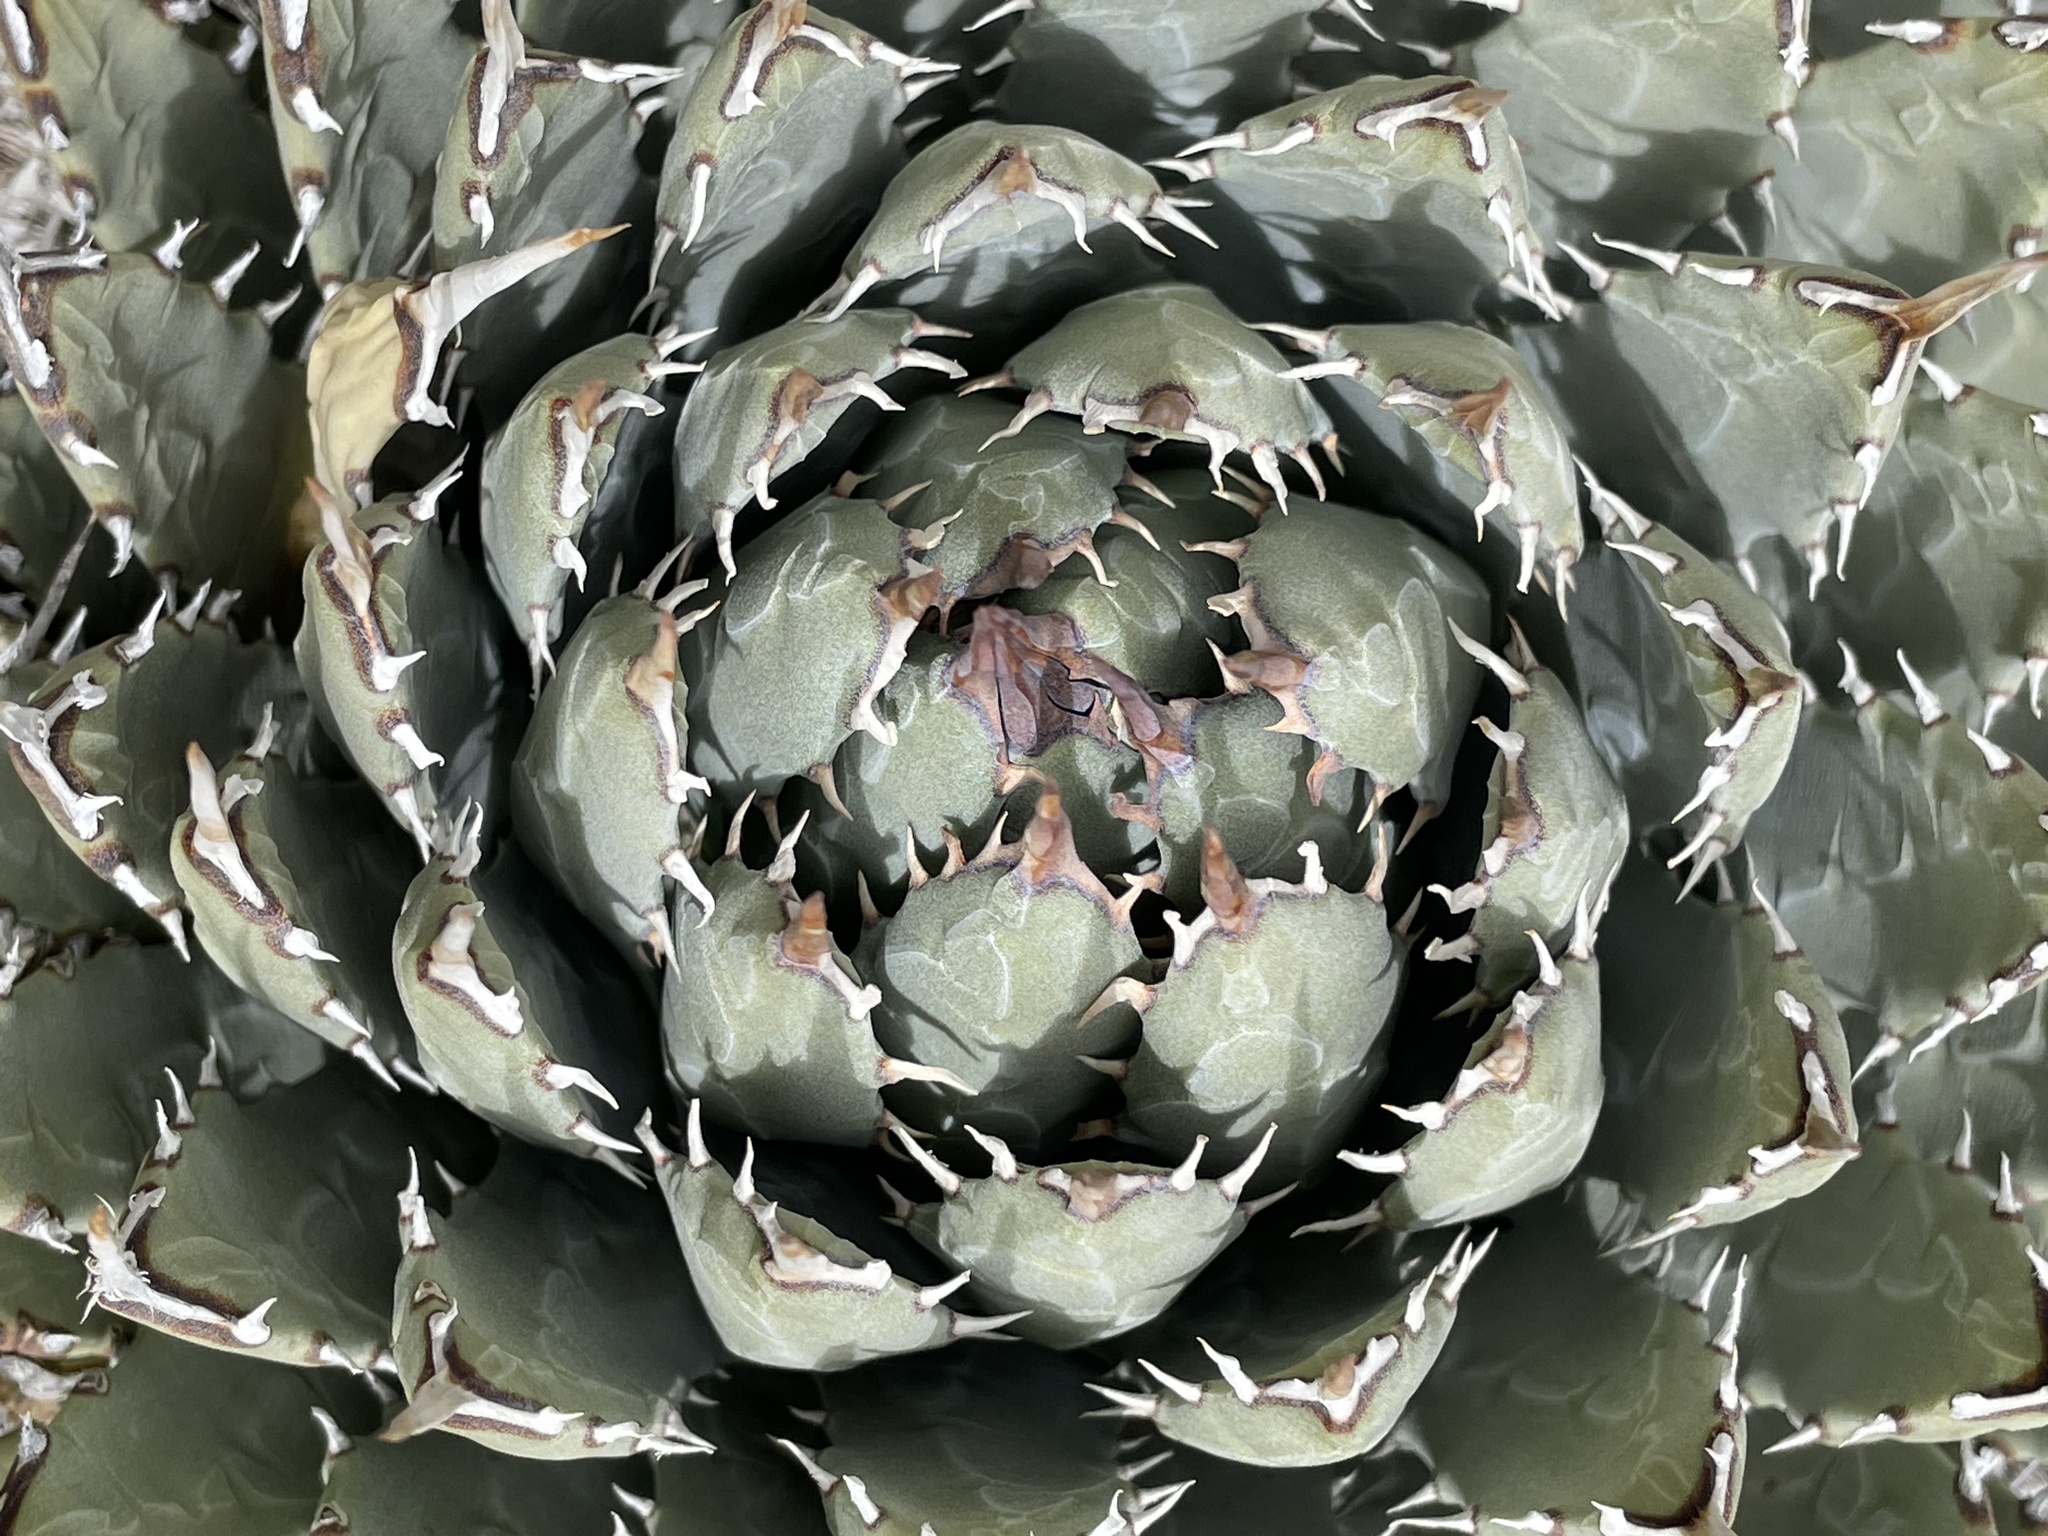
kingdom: Plantae
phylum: Tracheophyta
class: Liliopsida
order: Asparagales
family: Asparagaceae
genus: Agave
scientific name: Agave utahensis
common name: Utah agave
